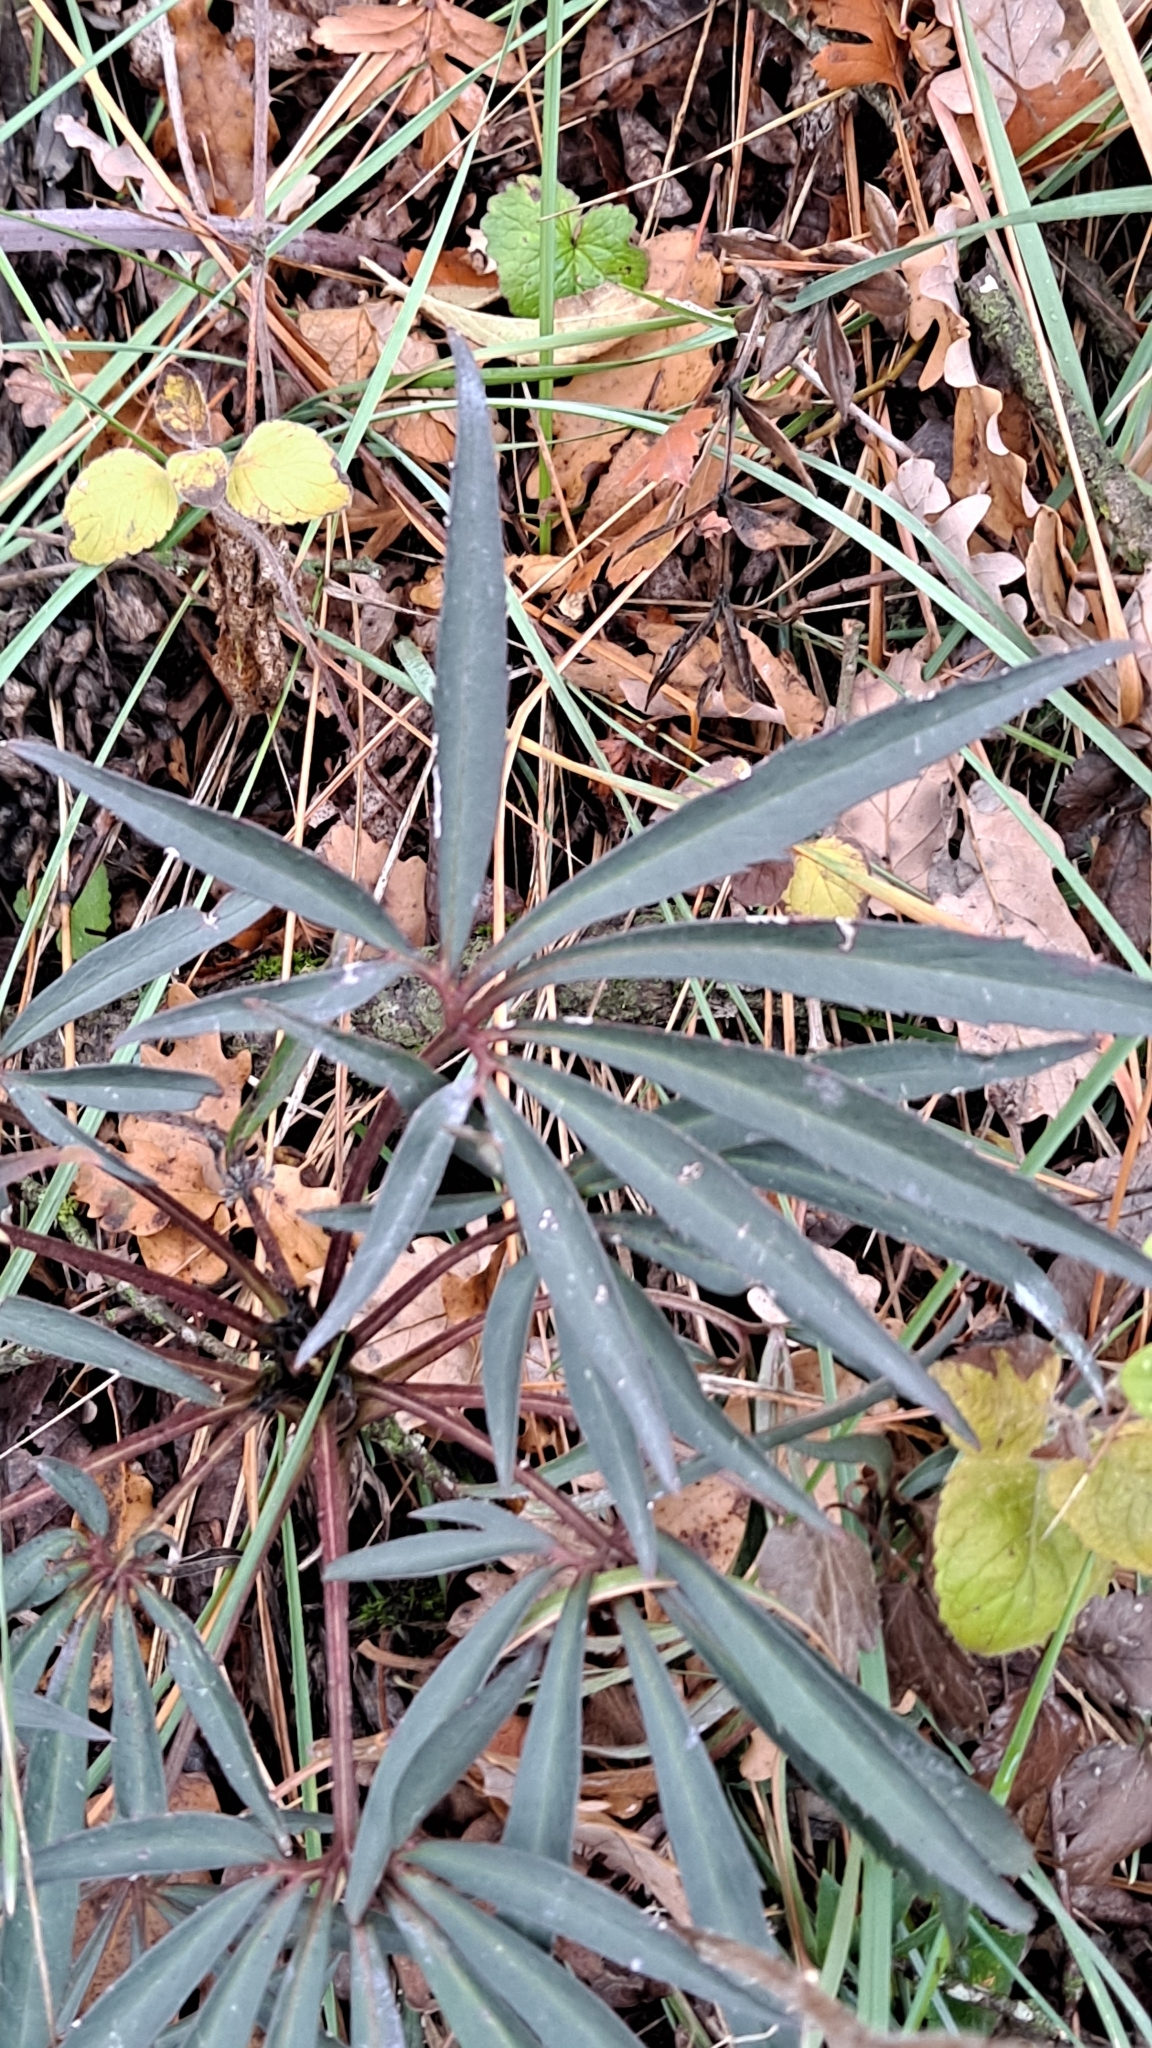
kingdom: Plantae
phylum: Tracheophyta
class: Magnoliopsida
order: Ranunculales
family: Ranunculaceae
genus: Helleborus
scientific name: Helleborus foetidus
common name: Stinking hellebore
